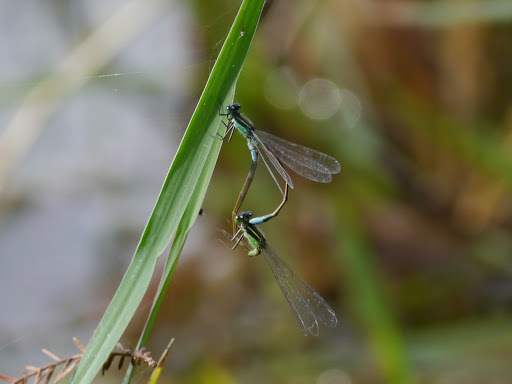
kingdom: Animalia
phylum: Arthropoda
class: Insecta
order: Odonata
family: Coenagrionidae
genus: Ischnura
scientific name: Ischnura ramburii
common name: Rambur's forktail
